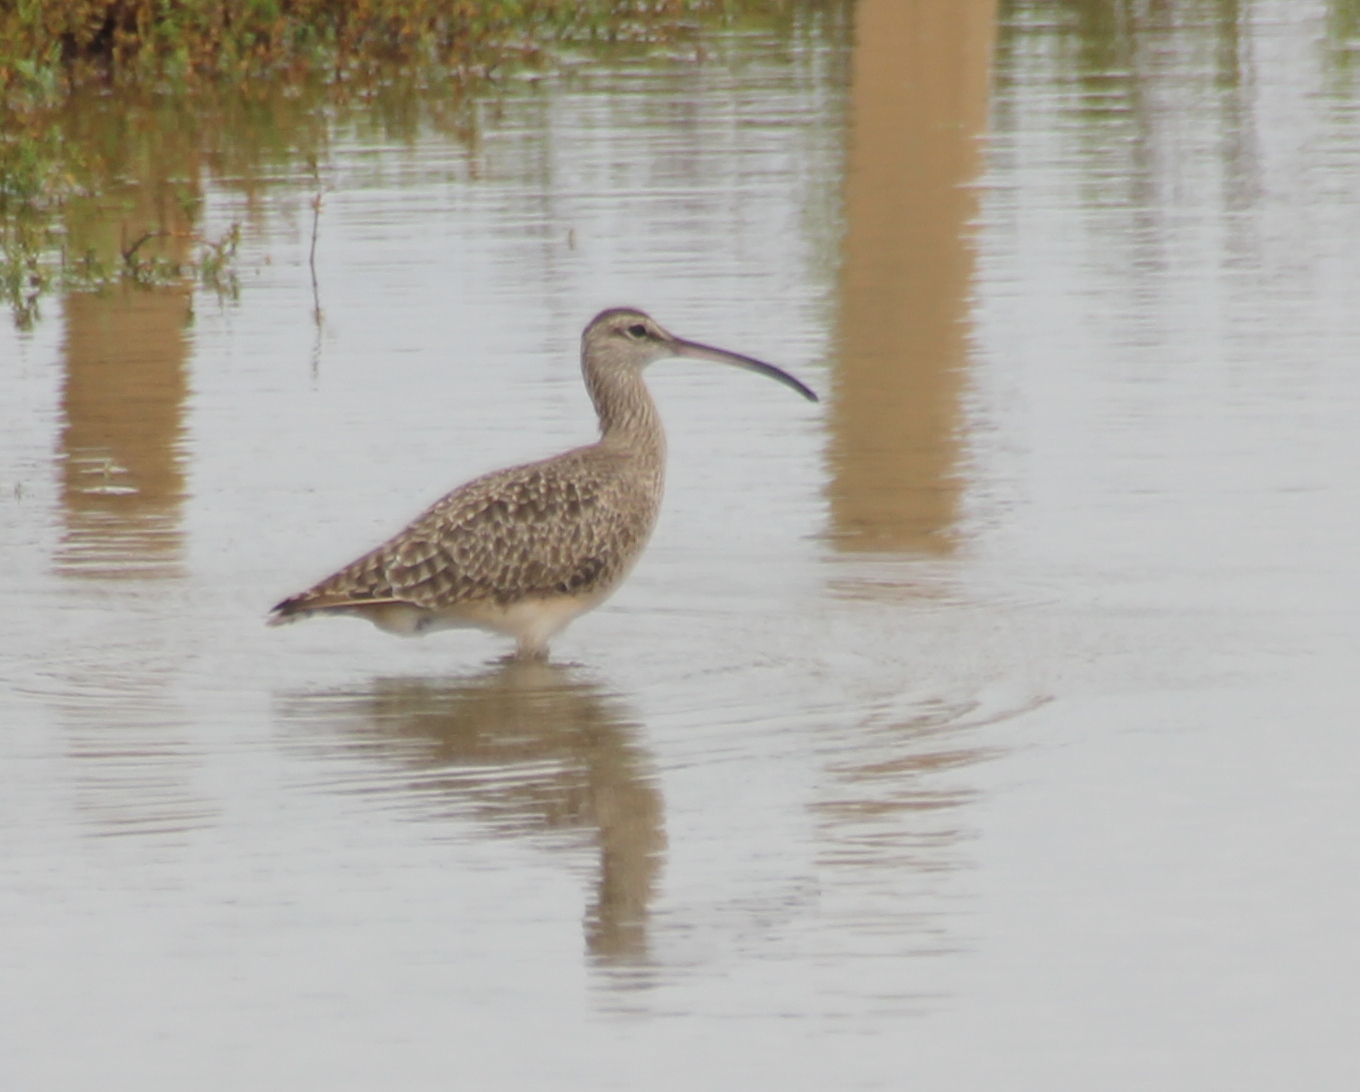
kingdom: Animalia
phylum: Chordata
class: Aves
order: Charadriiformes
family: Scolopacidae
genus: Numenius
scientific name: Numenius hudsonicus
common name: Hudsonian whimbrel
